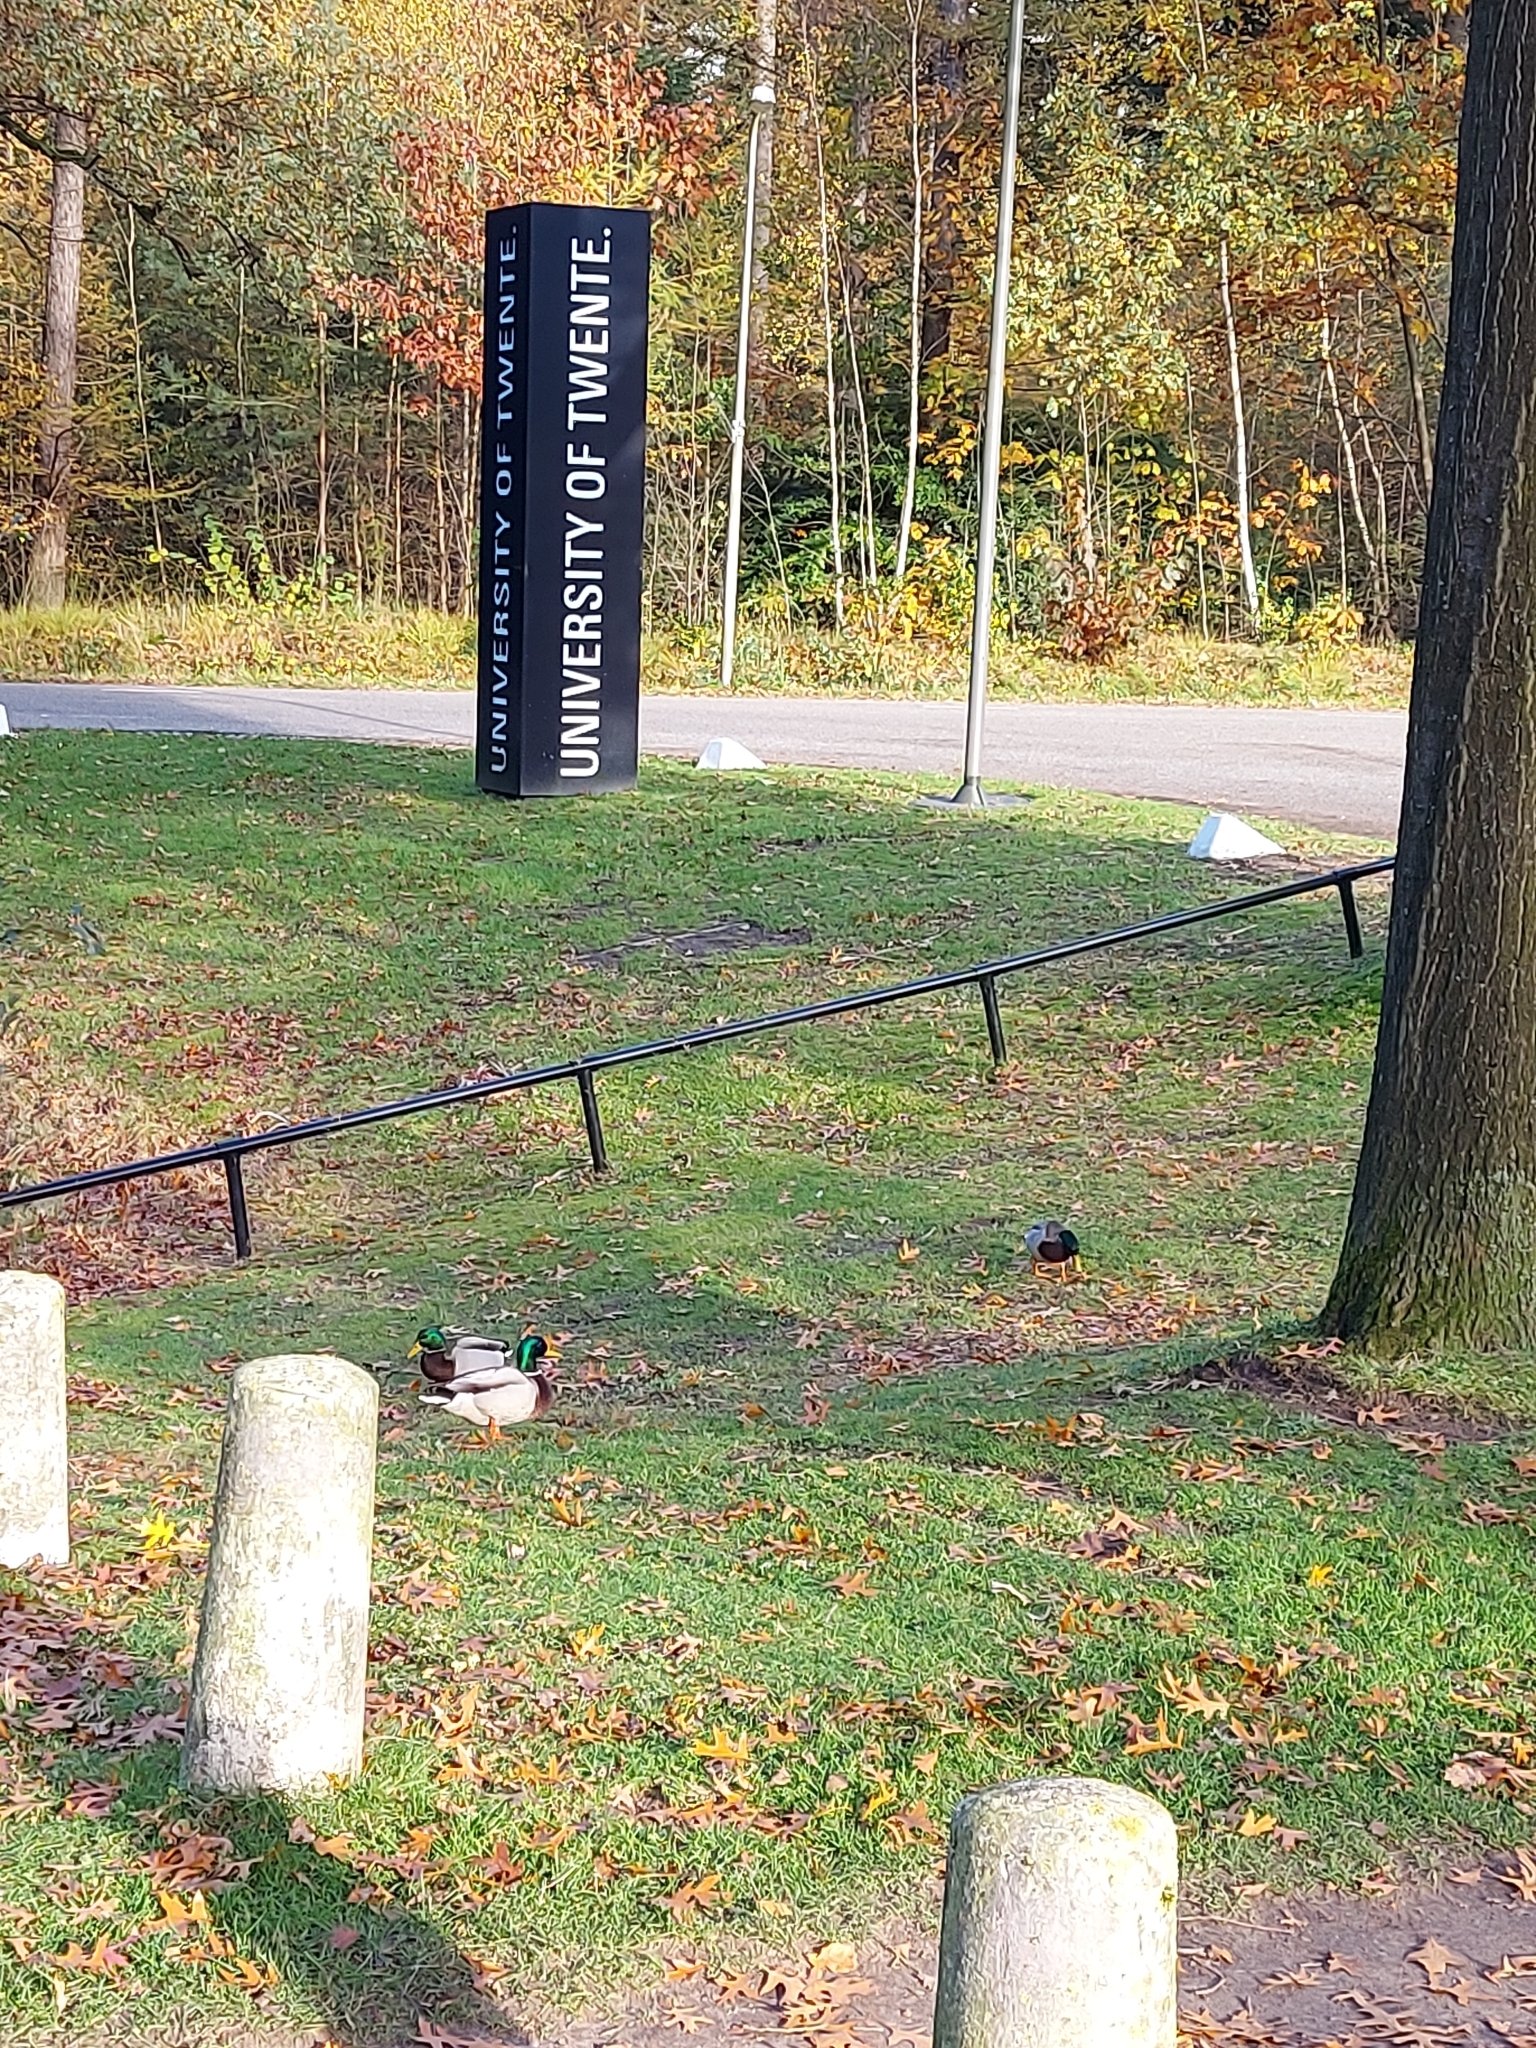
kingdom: Animalia
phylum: Chordata
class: Aves
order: Anseriformes
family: Anatidae
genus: Anas
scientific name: Anas platyrhynchos
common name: Mallard
